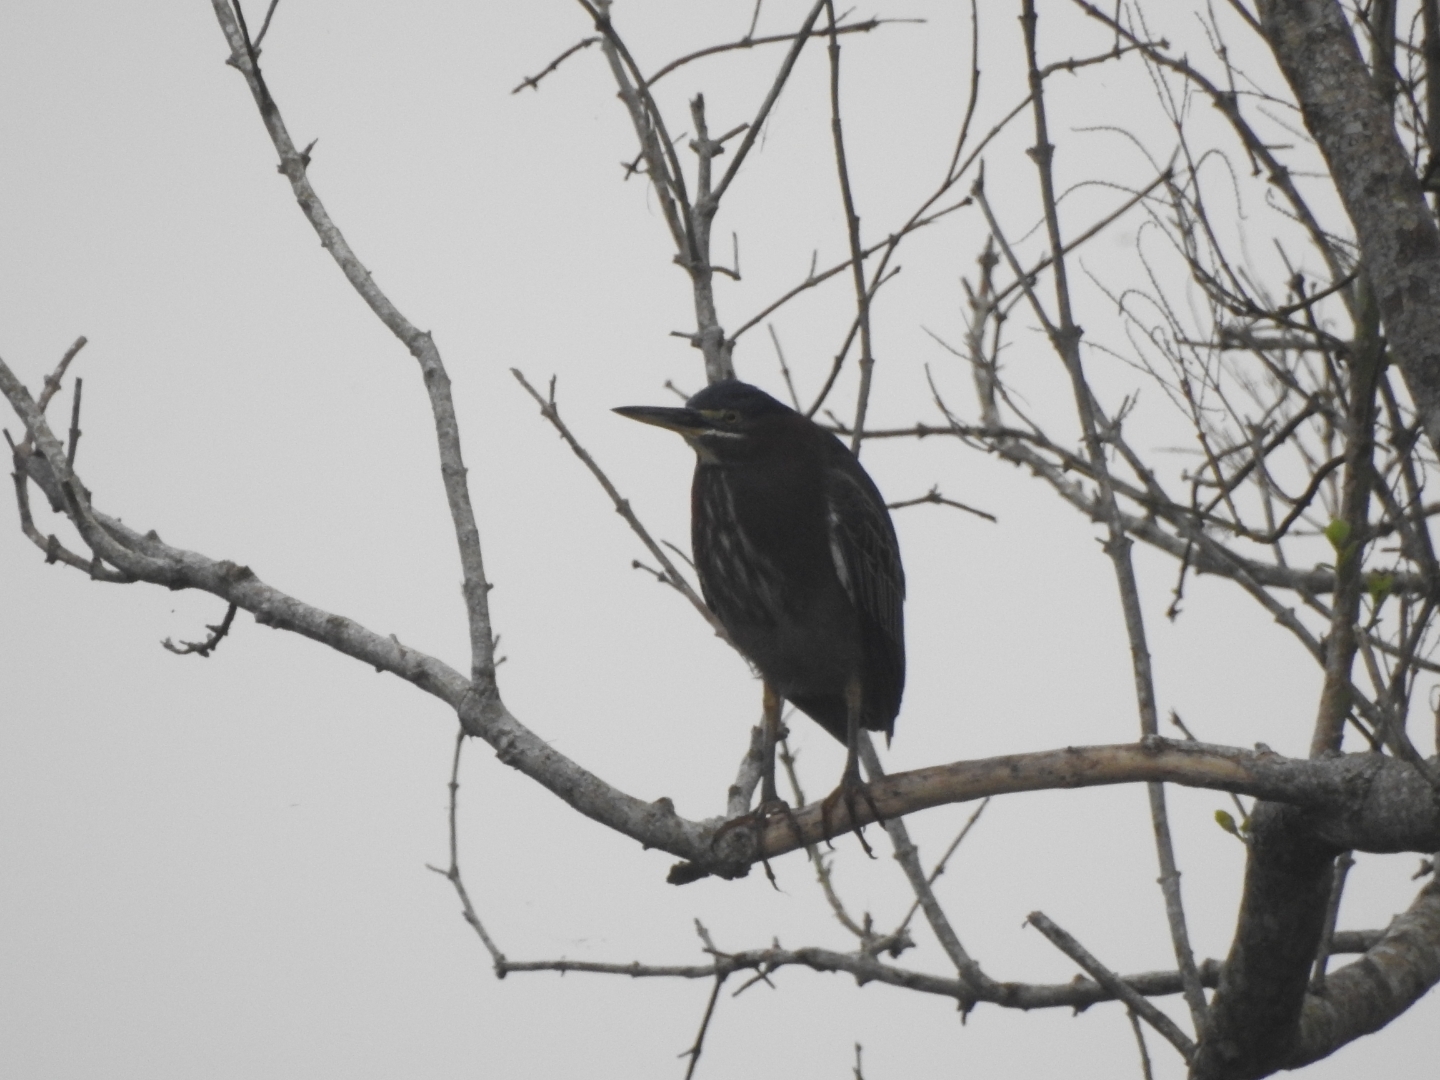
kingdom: Animalia
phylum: Chordata
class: Aves
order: Pelecaniformes
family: Ardeidae
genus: Butorides
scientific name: Butorides virescens
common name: Green heron
